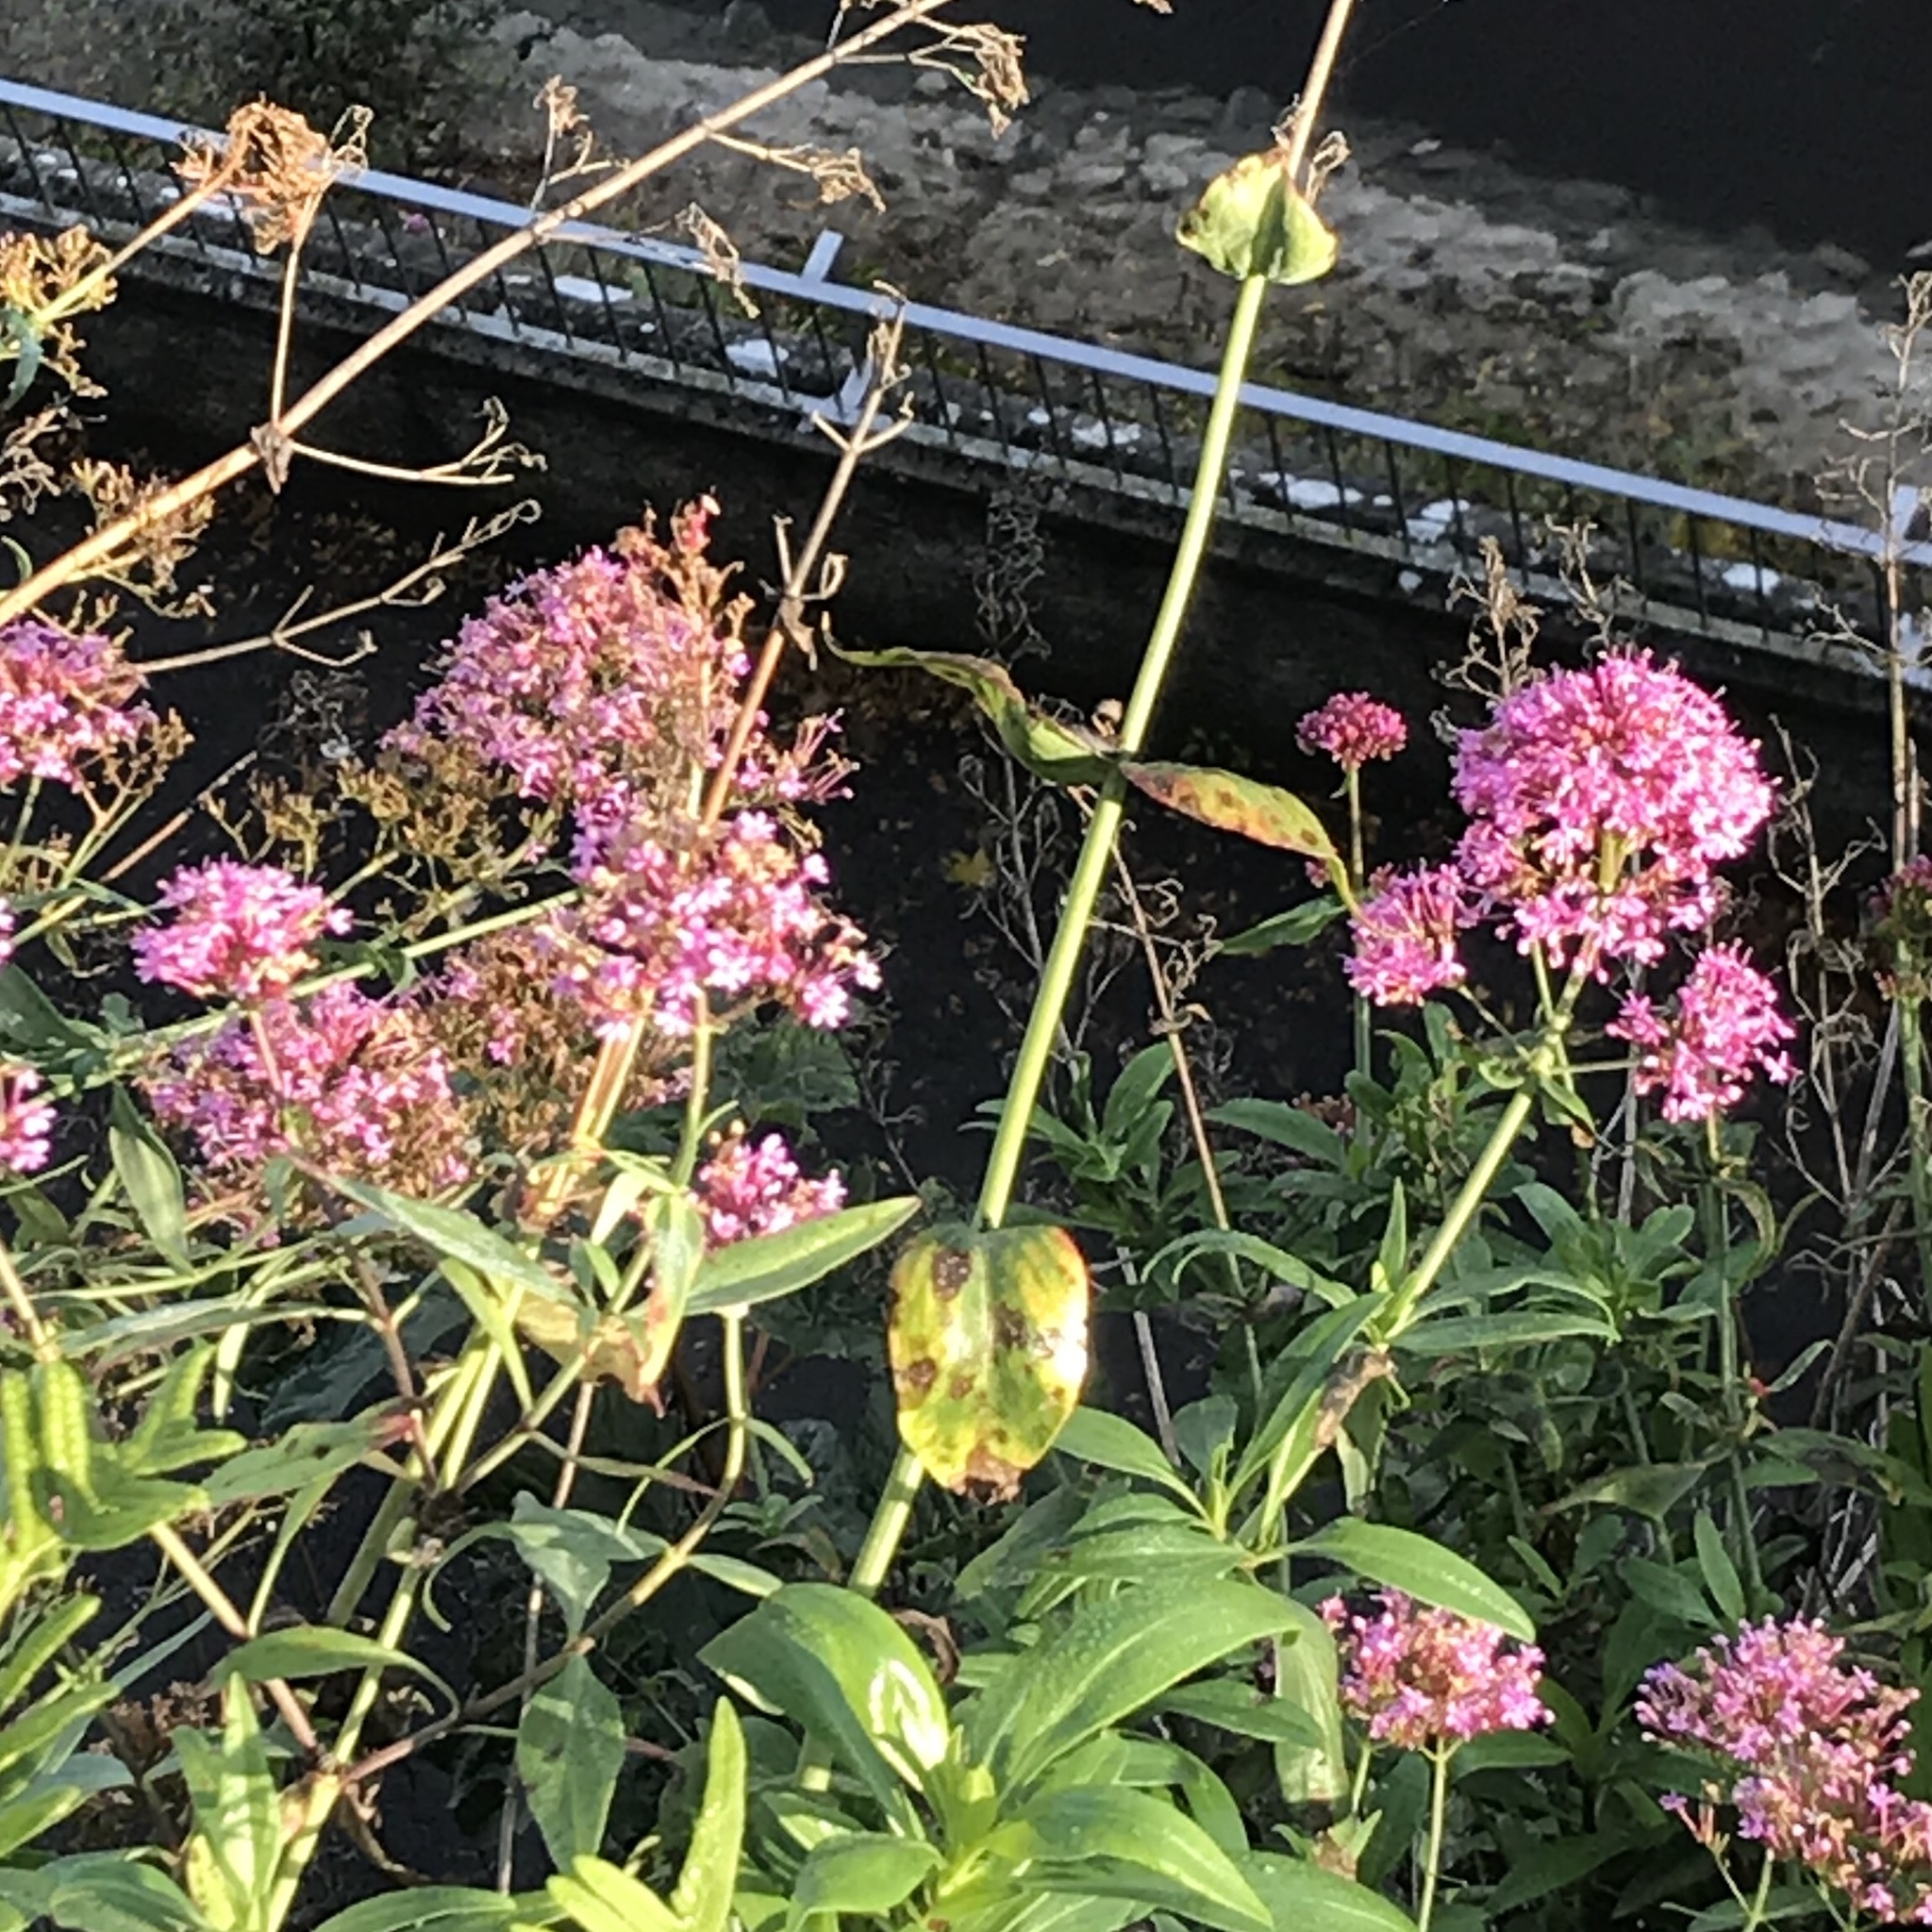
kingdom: Plantae
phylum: Tracheophyta
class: Magnoliopsida
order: Dipsacales
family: Caprifoliaceae
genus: Centranthus
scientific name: Centranthus ruber
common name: Red valerian
